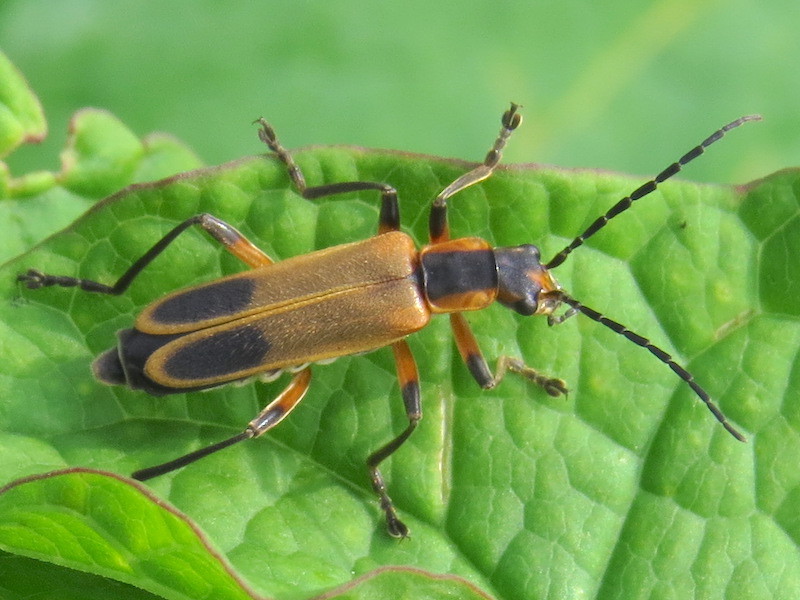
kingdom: Animalia
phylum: Arthropoda
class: Insecta
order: Coleoptera
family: Cantharidae
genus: Chauliognathus
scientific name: Chauliognathus marginatus
